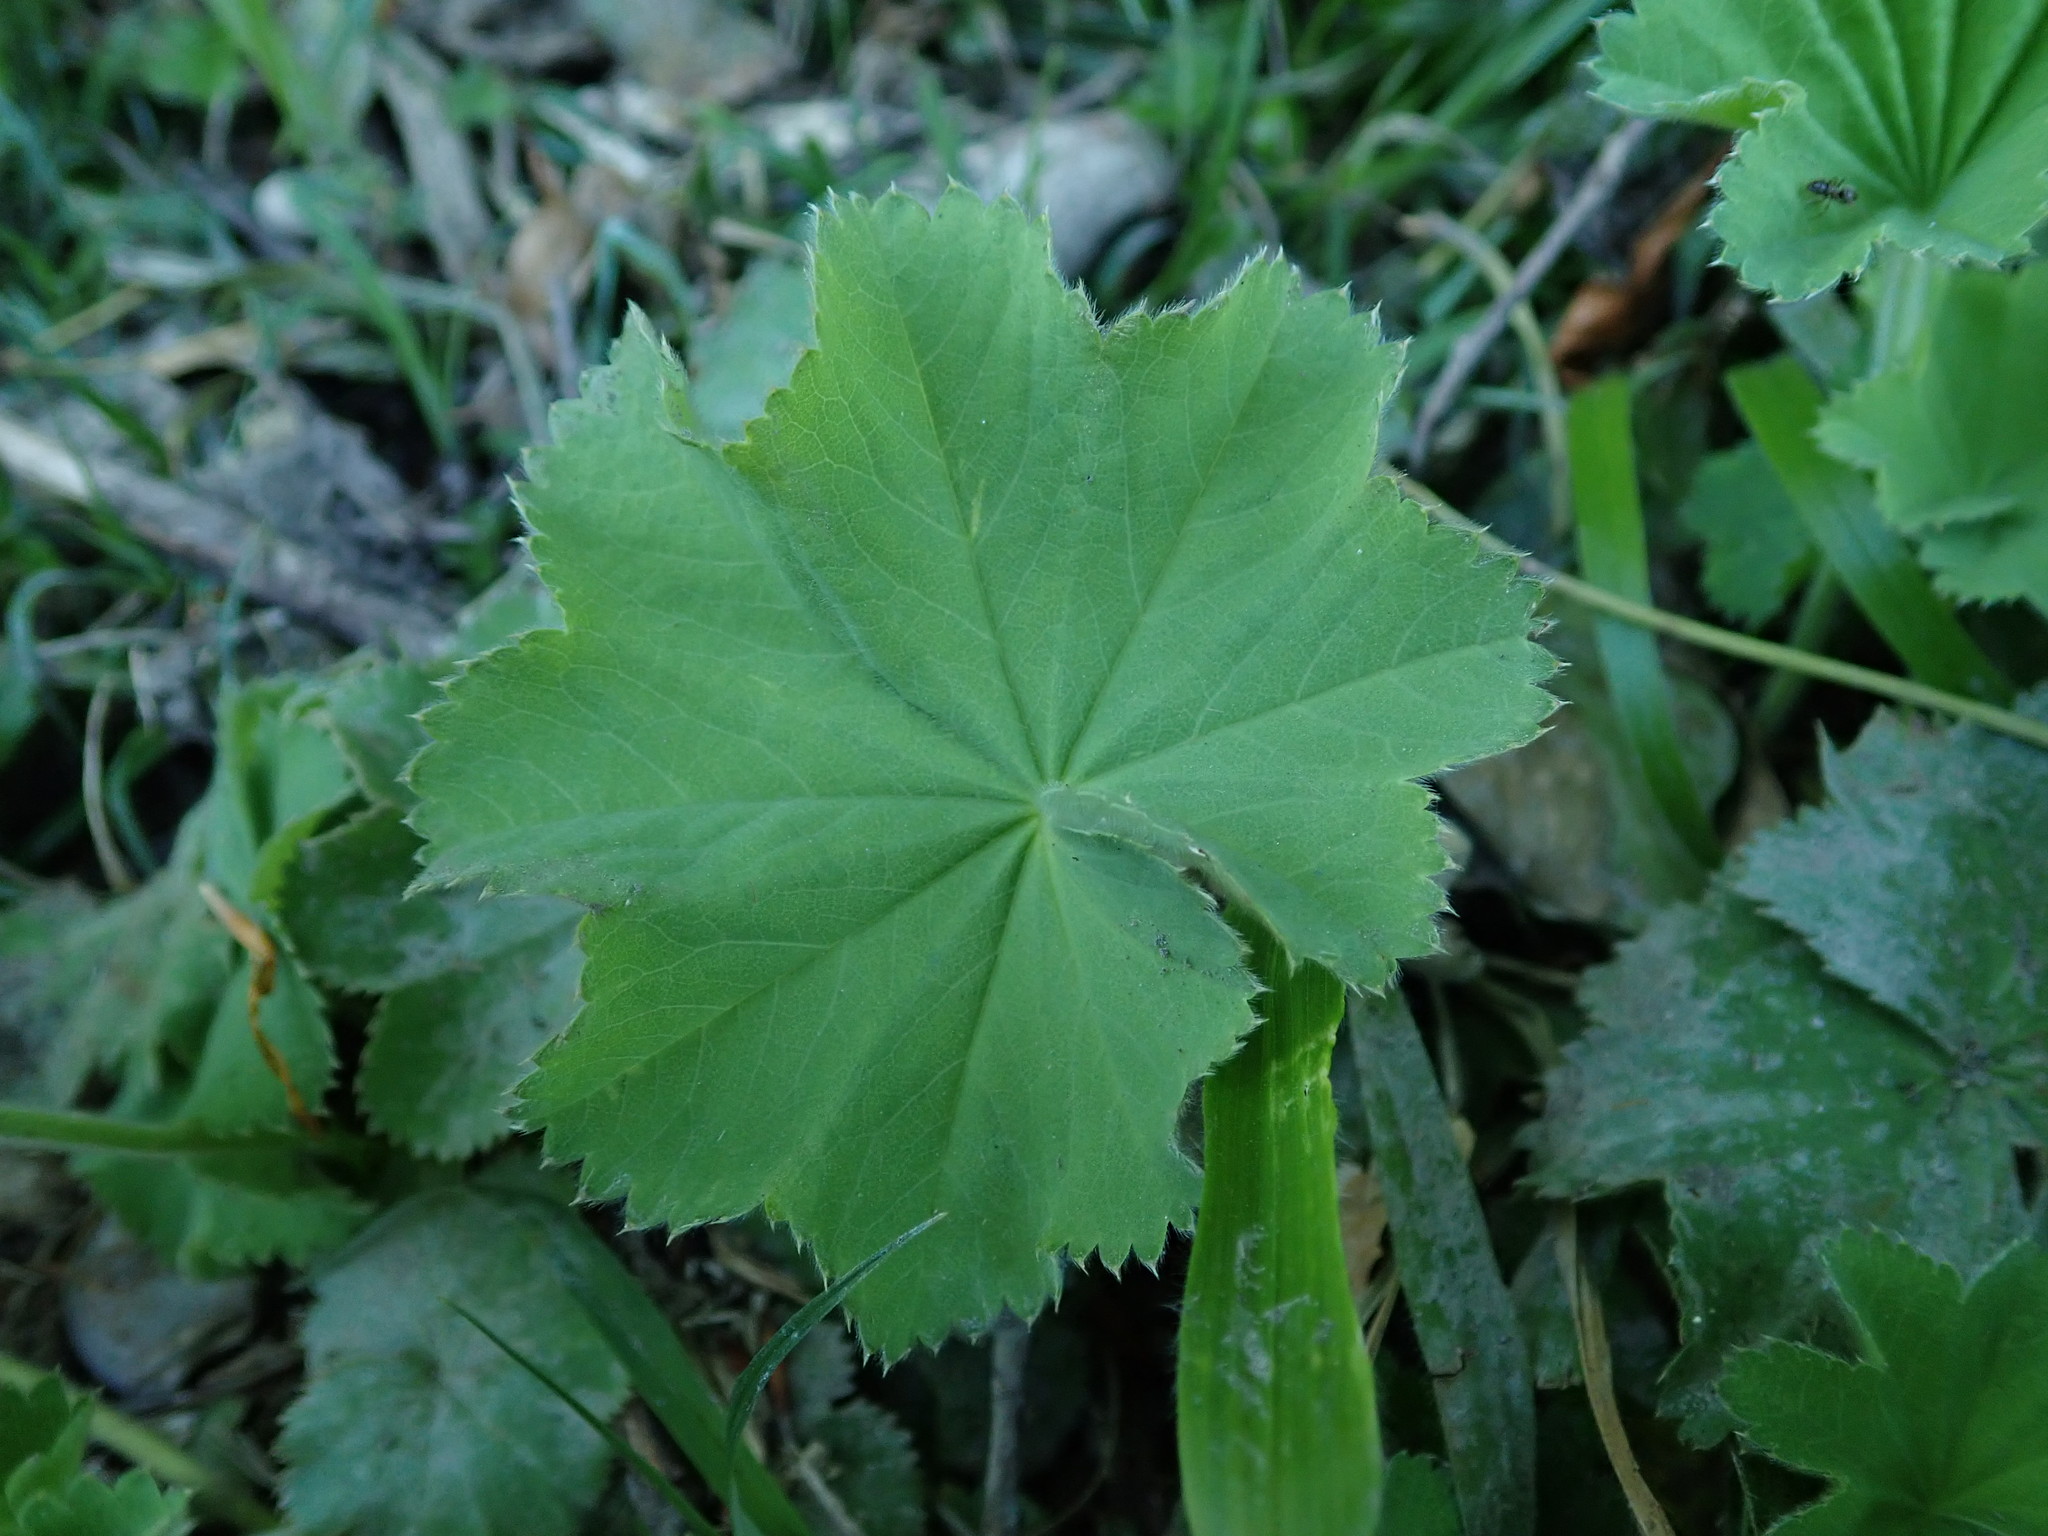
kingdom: Plantae
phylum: Tracheophyta
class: Magnoliopsida
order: Rosales
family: Rosaceae
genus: Alchemilla
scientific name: Alchemilla mollis
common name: Lady's-mantle
